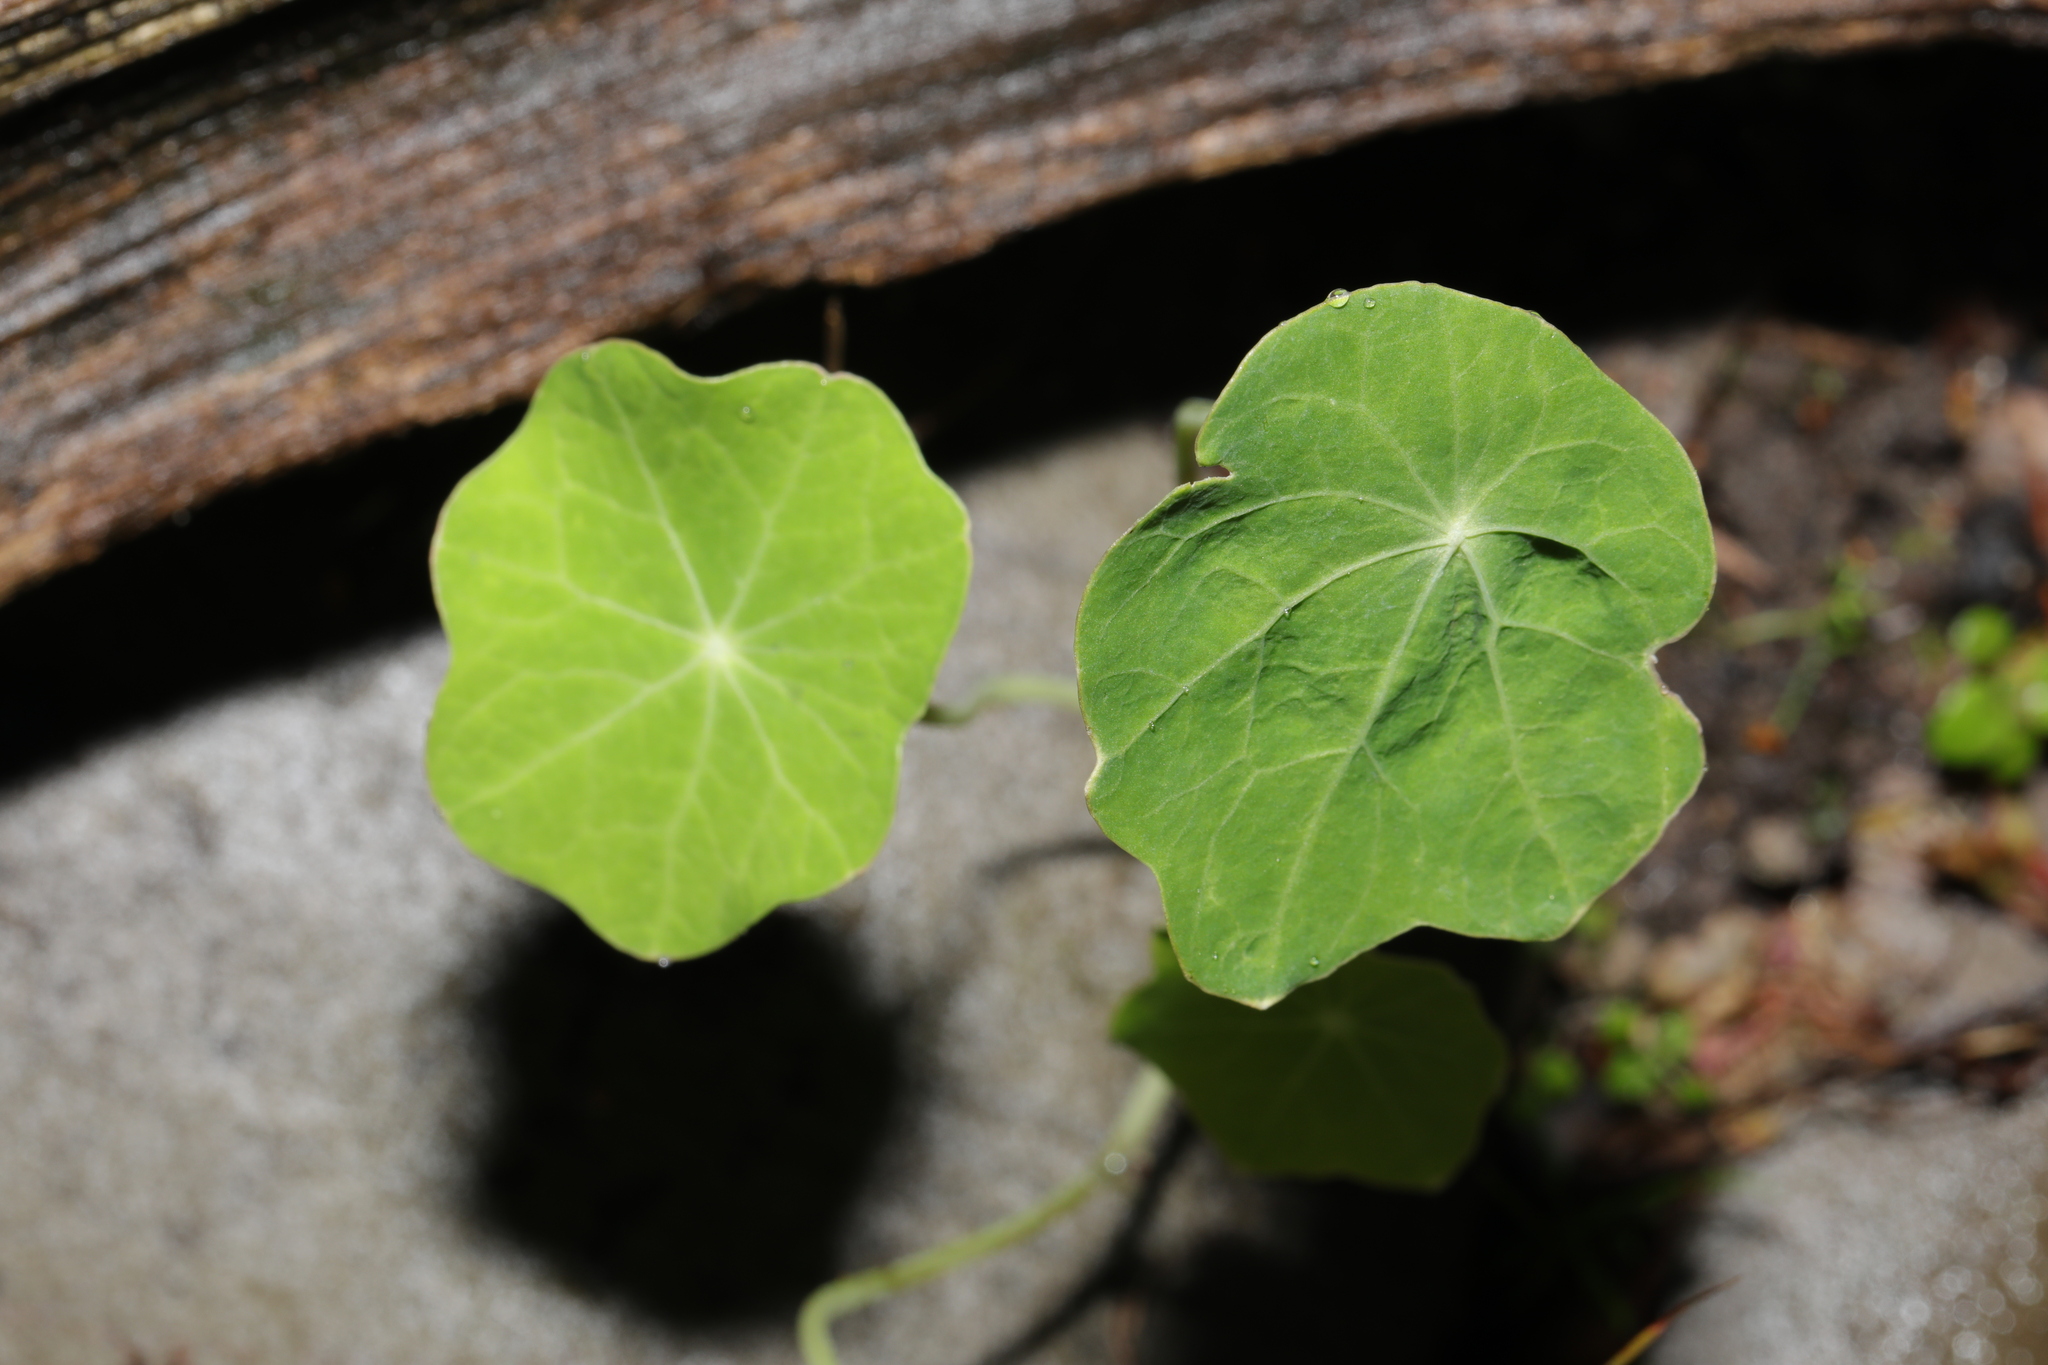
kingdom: Plantae
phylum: Tracheophyta
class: Magnoliopsida
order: Brassicales
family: Tropaeolaceae
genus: Tropaeolum
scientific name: Tropaeolum majus
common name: Nasturtium
